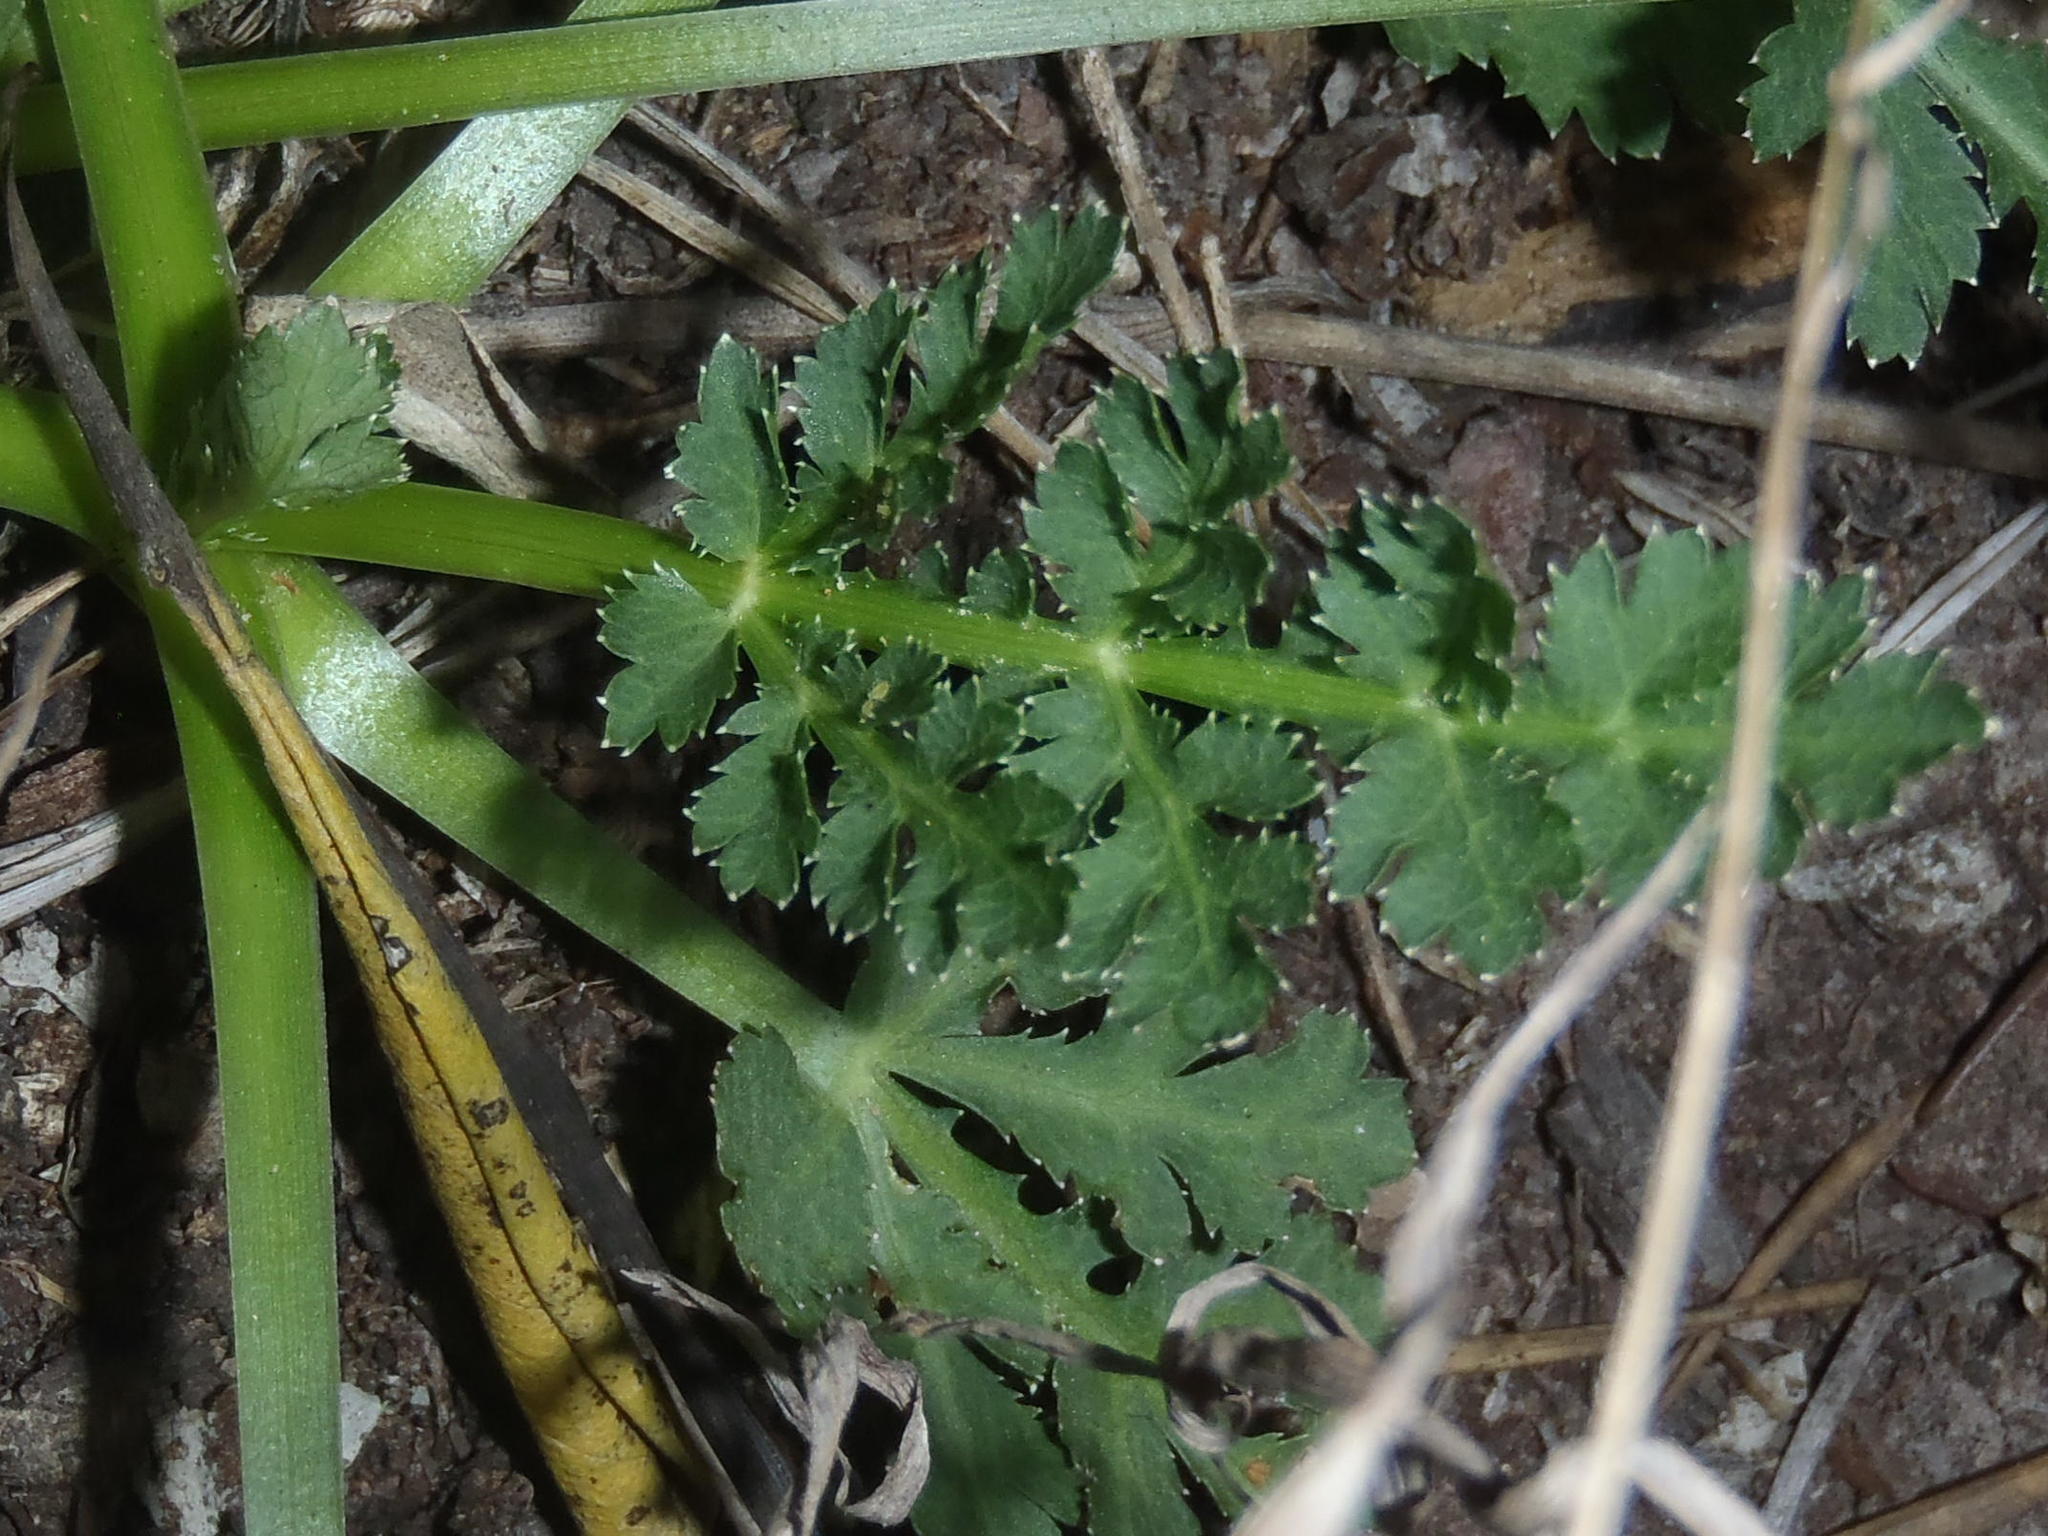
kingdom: Plantae
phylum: Tracheophyta
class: Magnoliopsida
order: Apiales
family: Apiaceae
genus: Lichtensteinia
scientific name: Lichtensteinia interrupta
